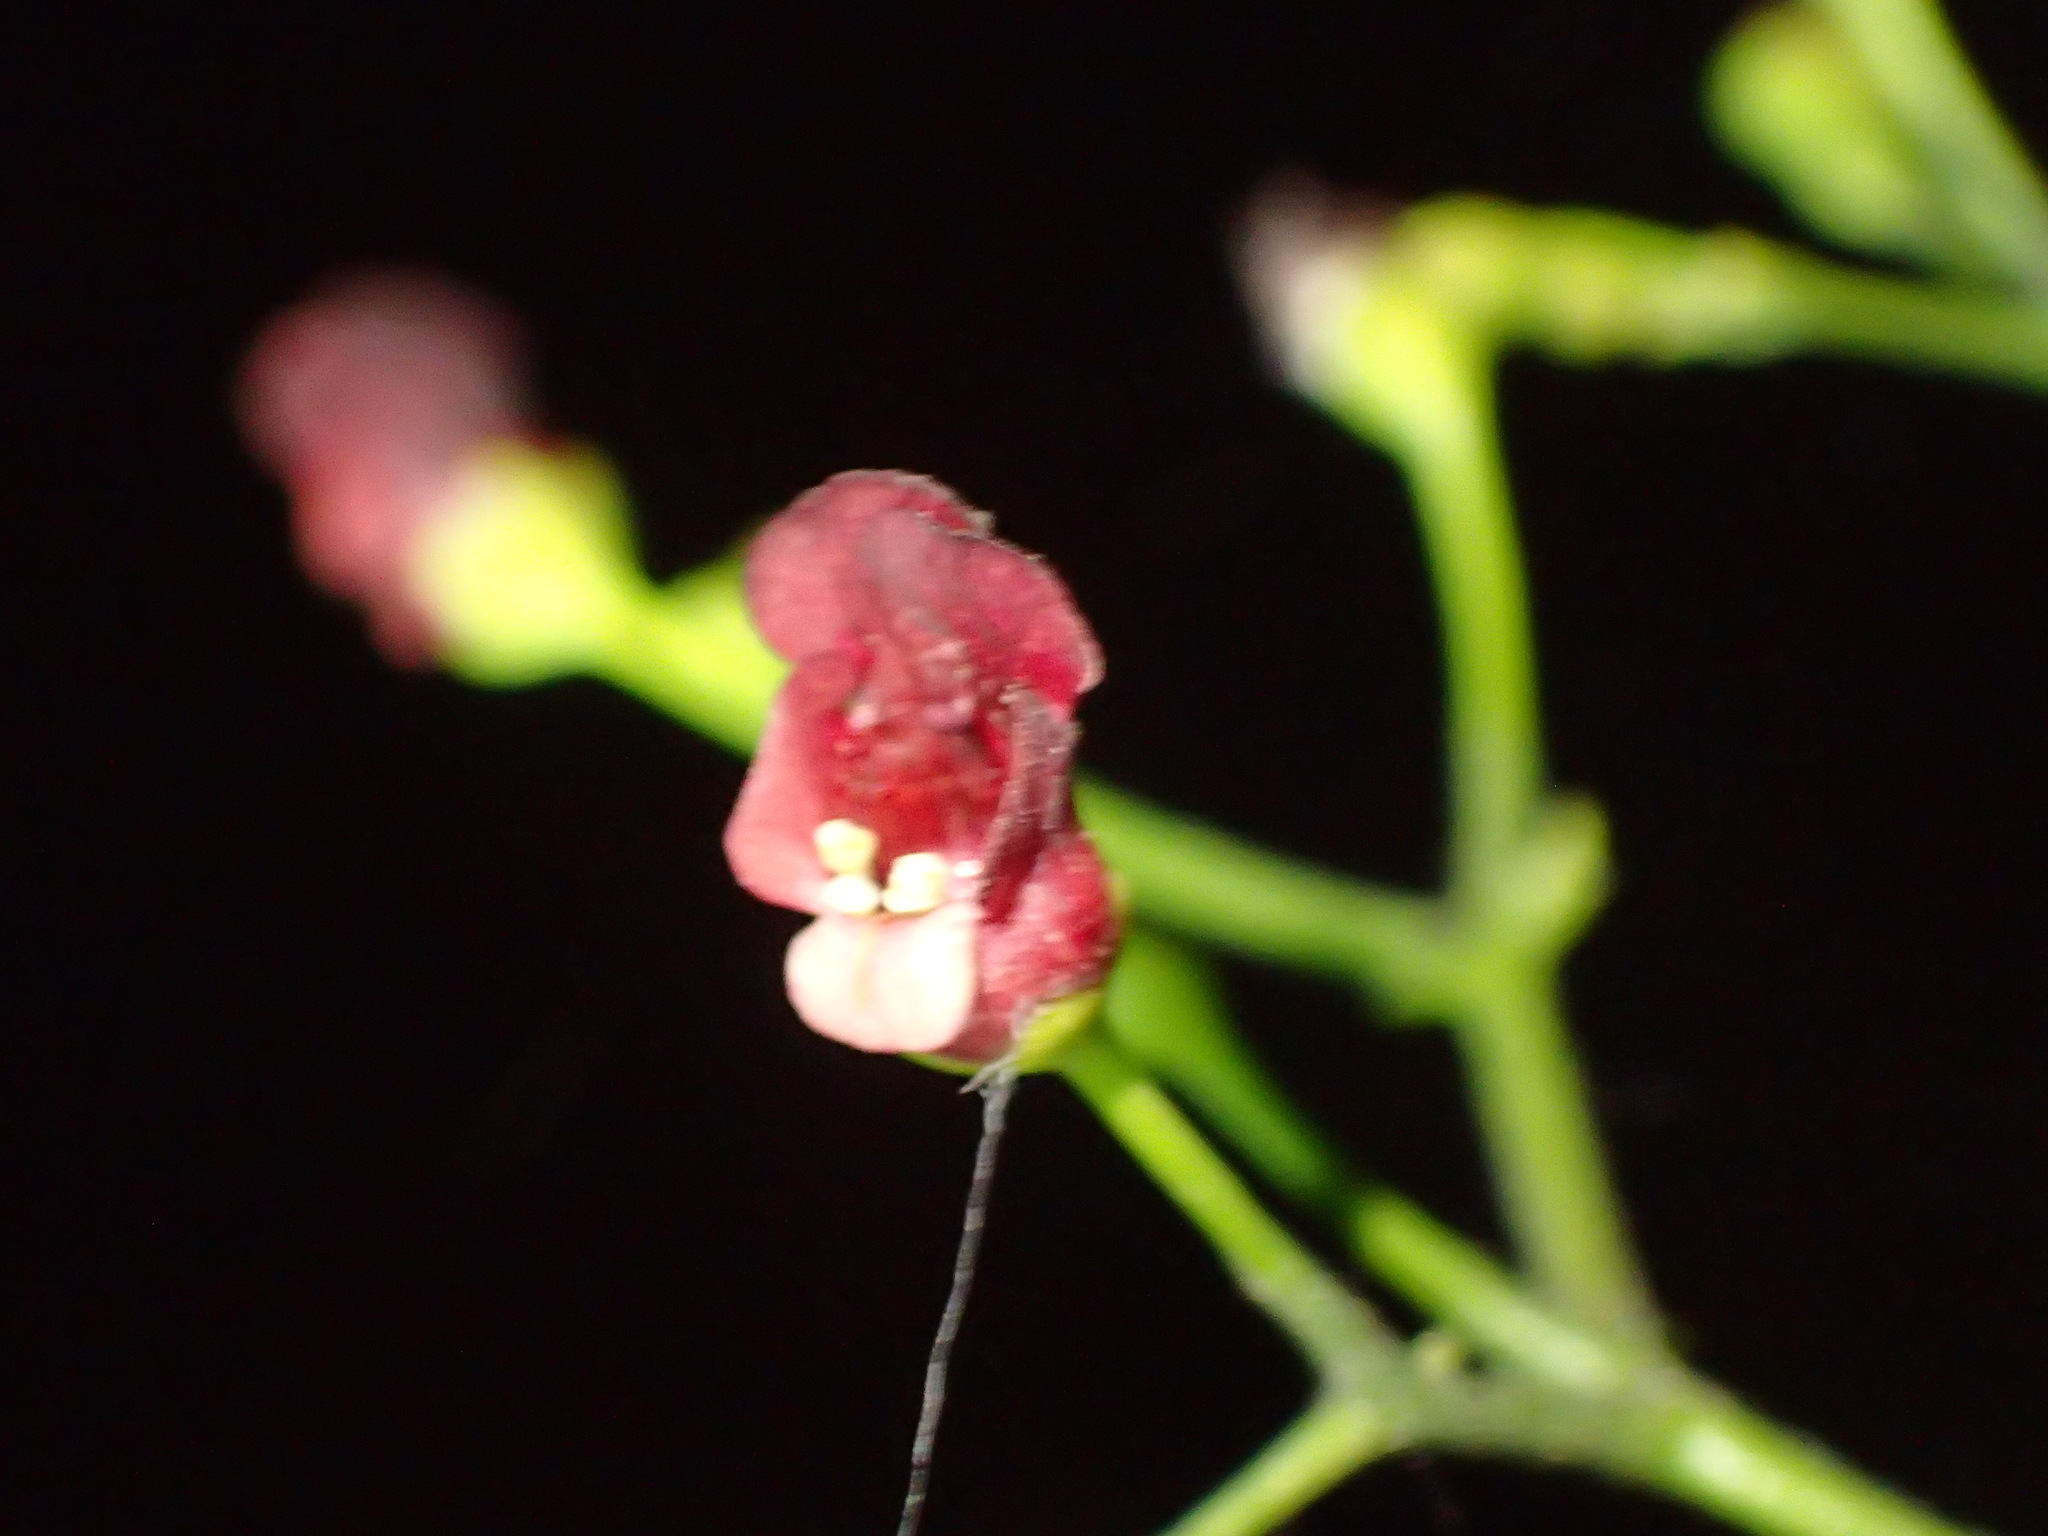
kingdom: Plantae
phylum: Tracheophyta
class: Magnoliopsida
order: Lamiales
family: Scrophulariaceae
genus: Scrophularia
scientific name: Scrophularia californica
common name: California figwort
